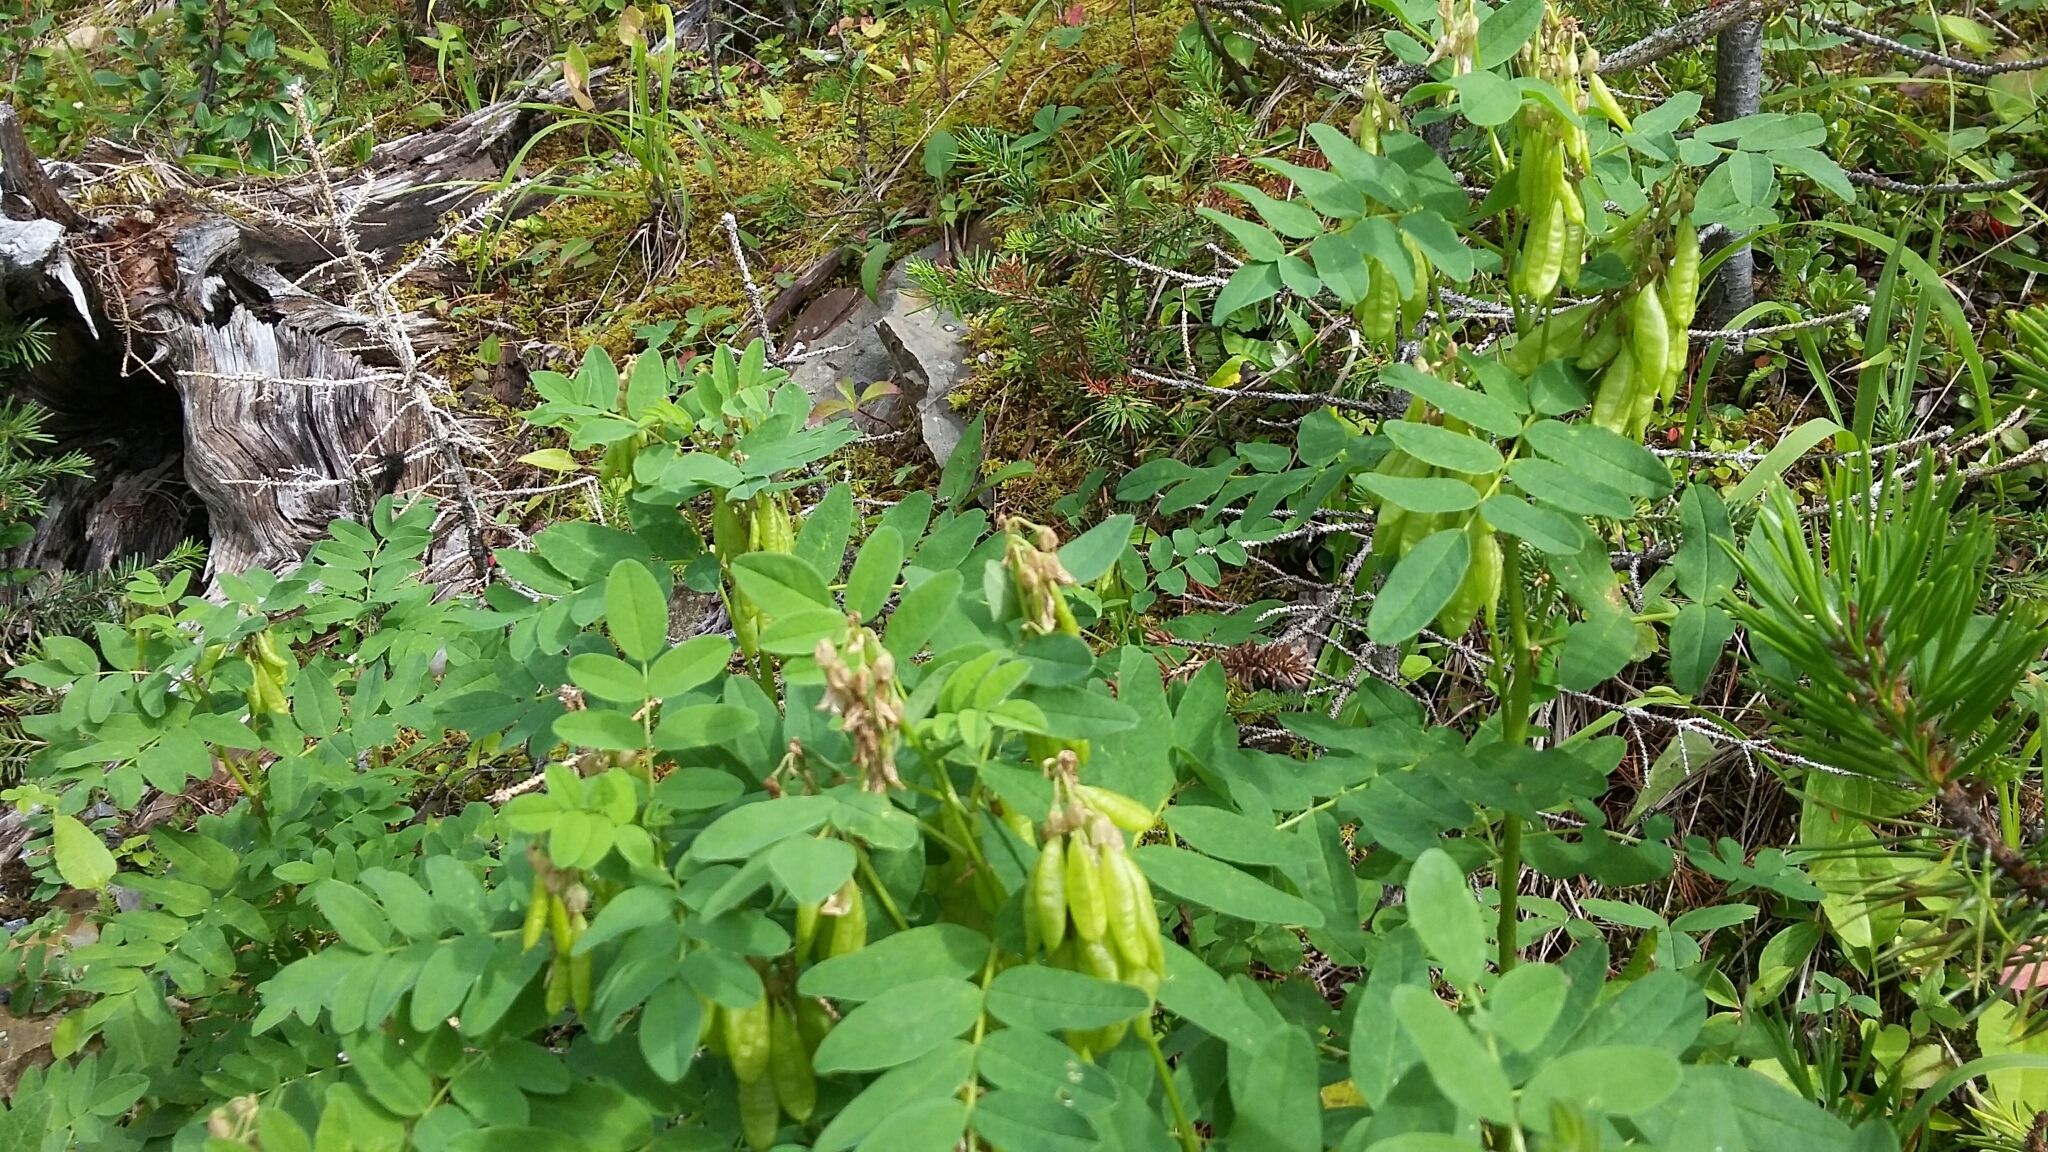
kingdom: Plantae
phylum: Tracheophyta
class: Magnoliopsida
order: Fabales
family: Fabaceae
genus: Astragalus
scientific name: Astragalus americanus
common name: American milk-vetch
